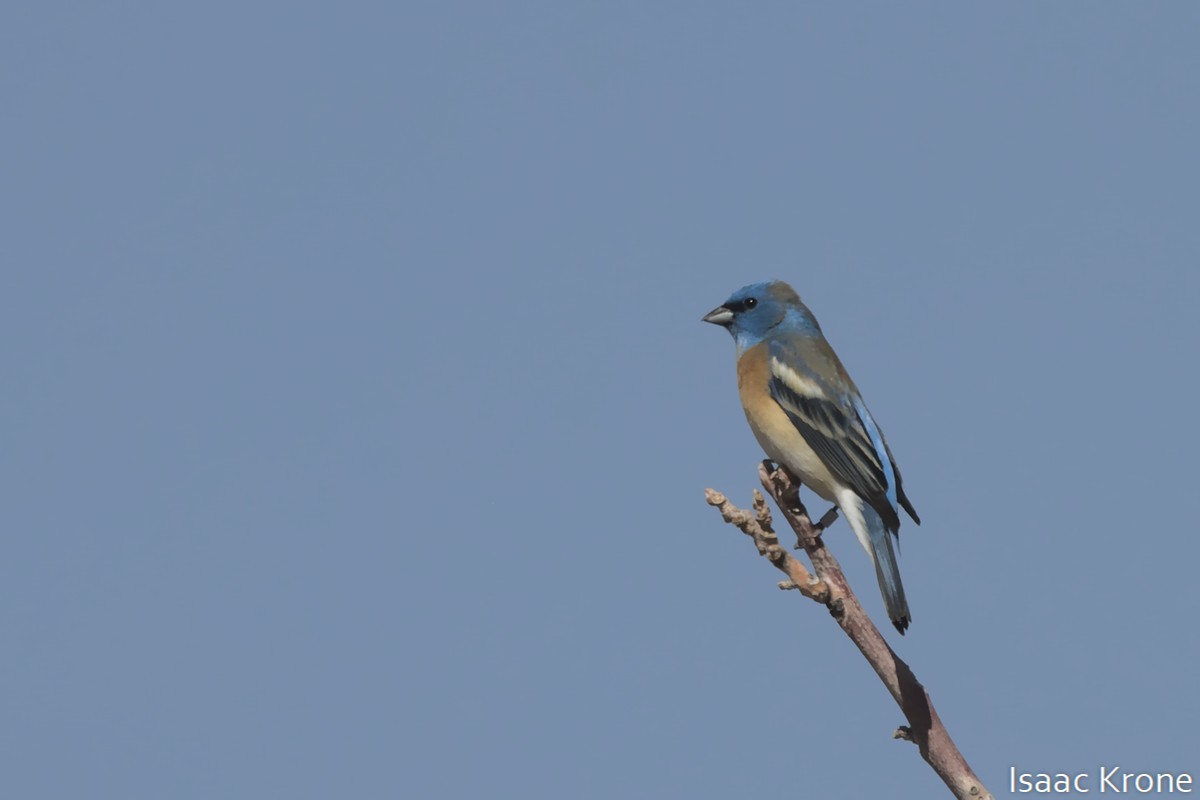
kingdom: Animalia
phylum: Chordata
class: Aves
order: Passeriformes
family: Cardinalidae
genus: Passerina
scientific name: Passerina amoena
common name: Lazuli bunting
